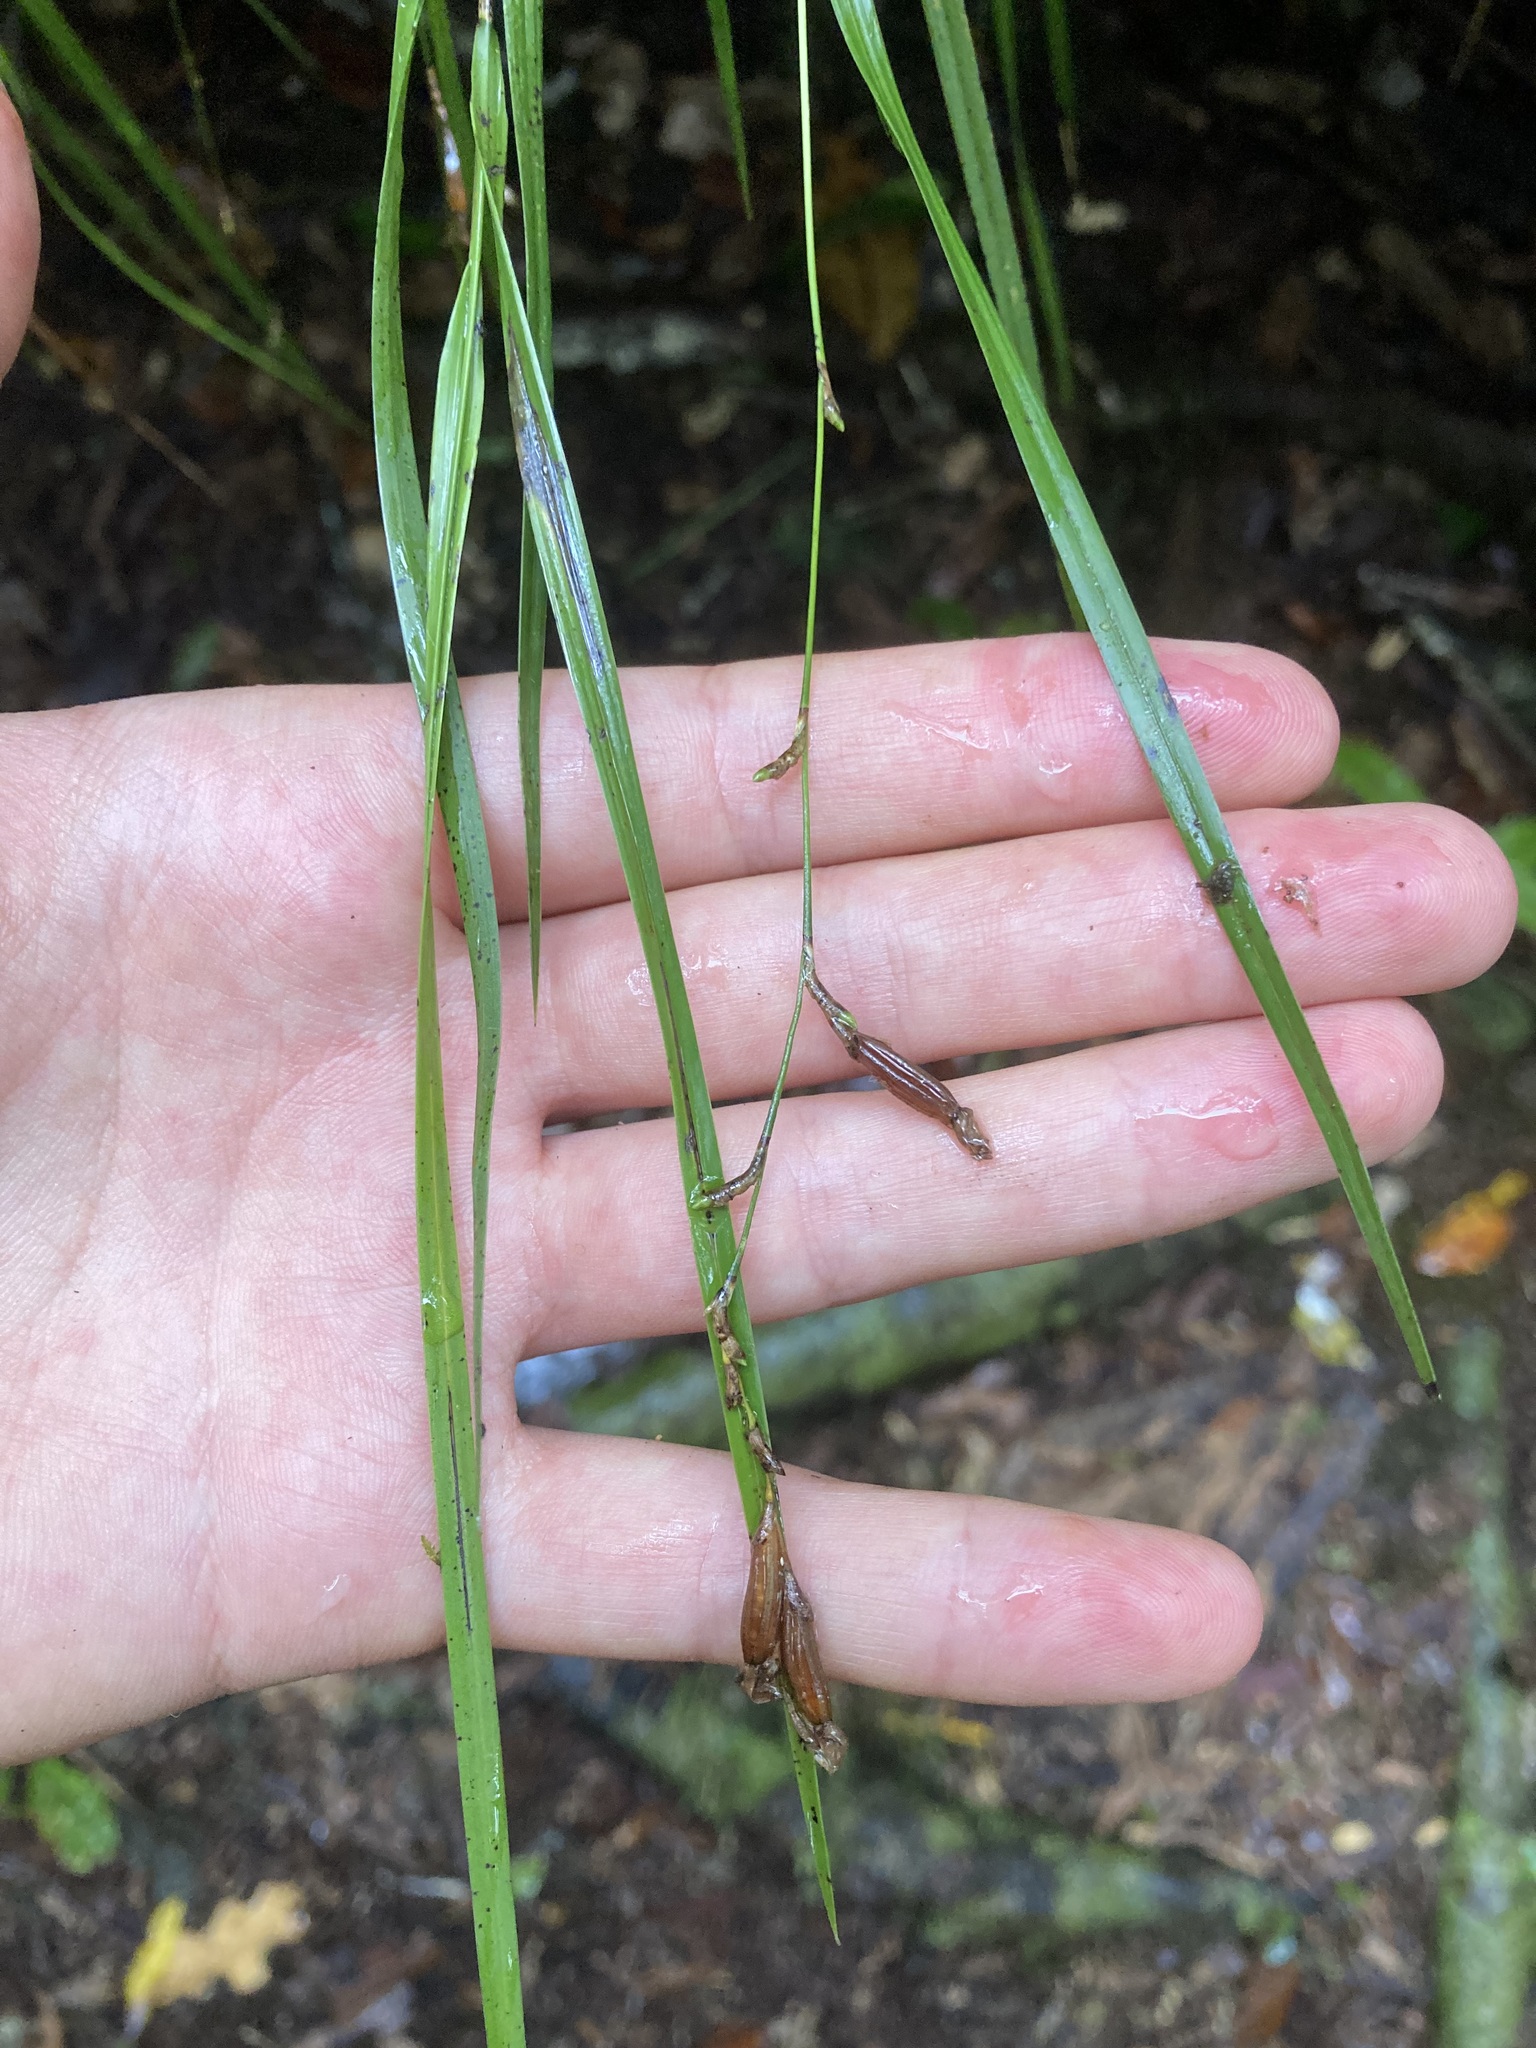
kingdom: Plantae
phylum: Tracheophyta
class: Liliopsida
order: Asparagales
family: Orchidaceae
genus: Earina
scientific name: Earina mucronata
